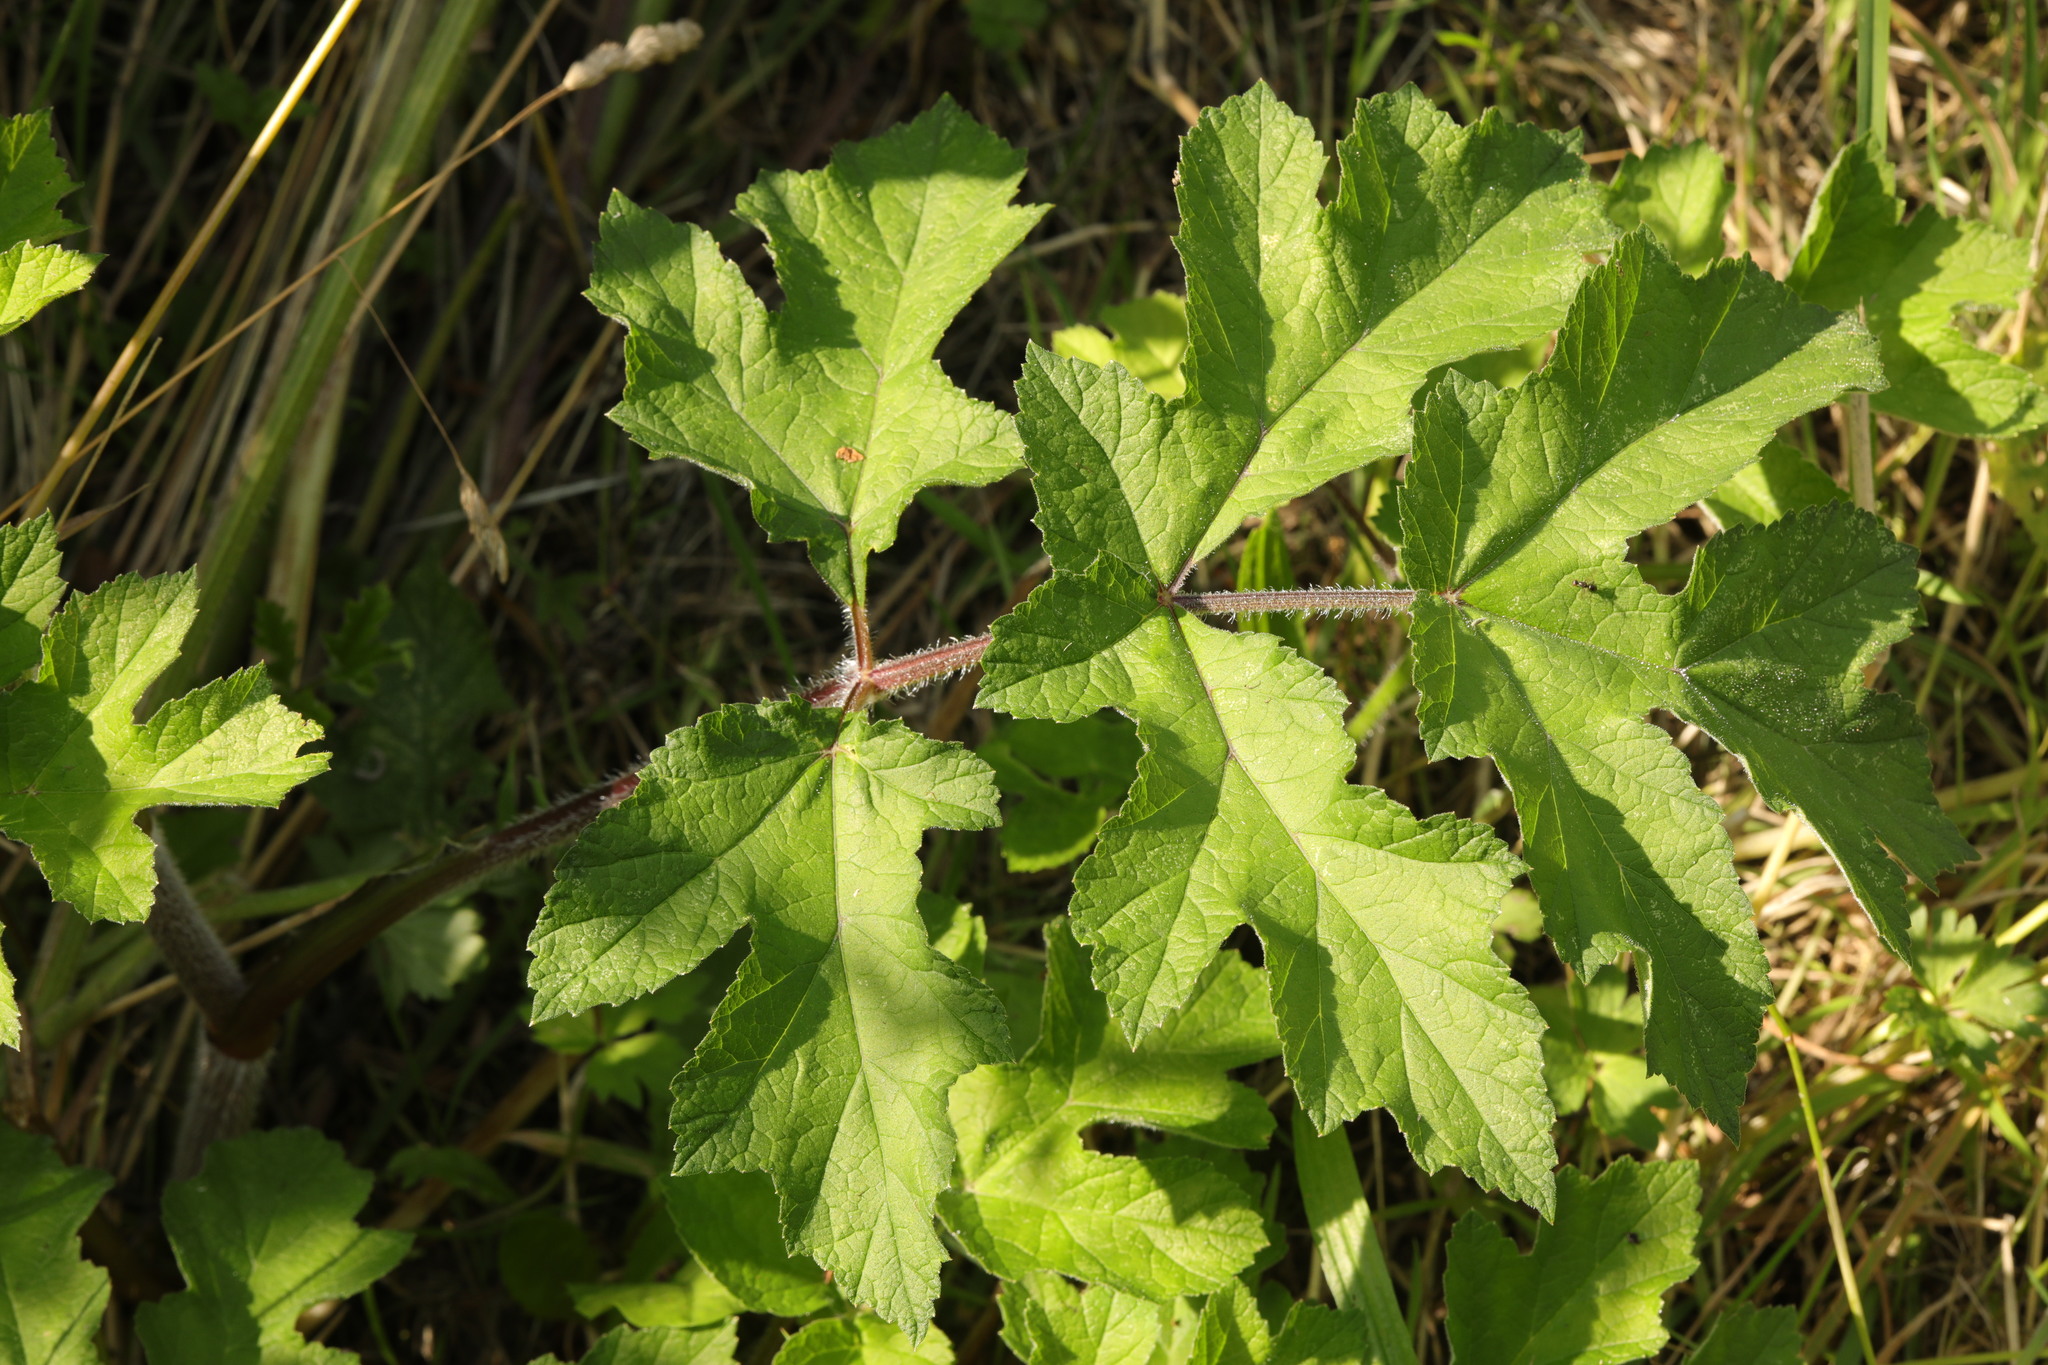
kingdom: Plantae
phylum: Tracheophyta
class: Magnoliopsida
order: Apiales
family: Apiaceae
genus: Heracleum
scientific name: Heracleum sphondylium
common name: Hogweed
